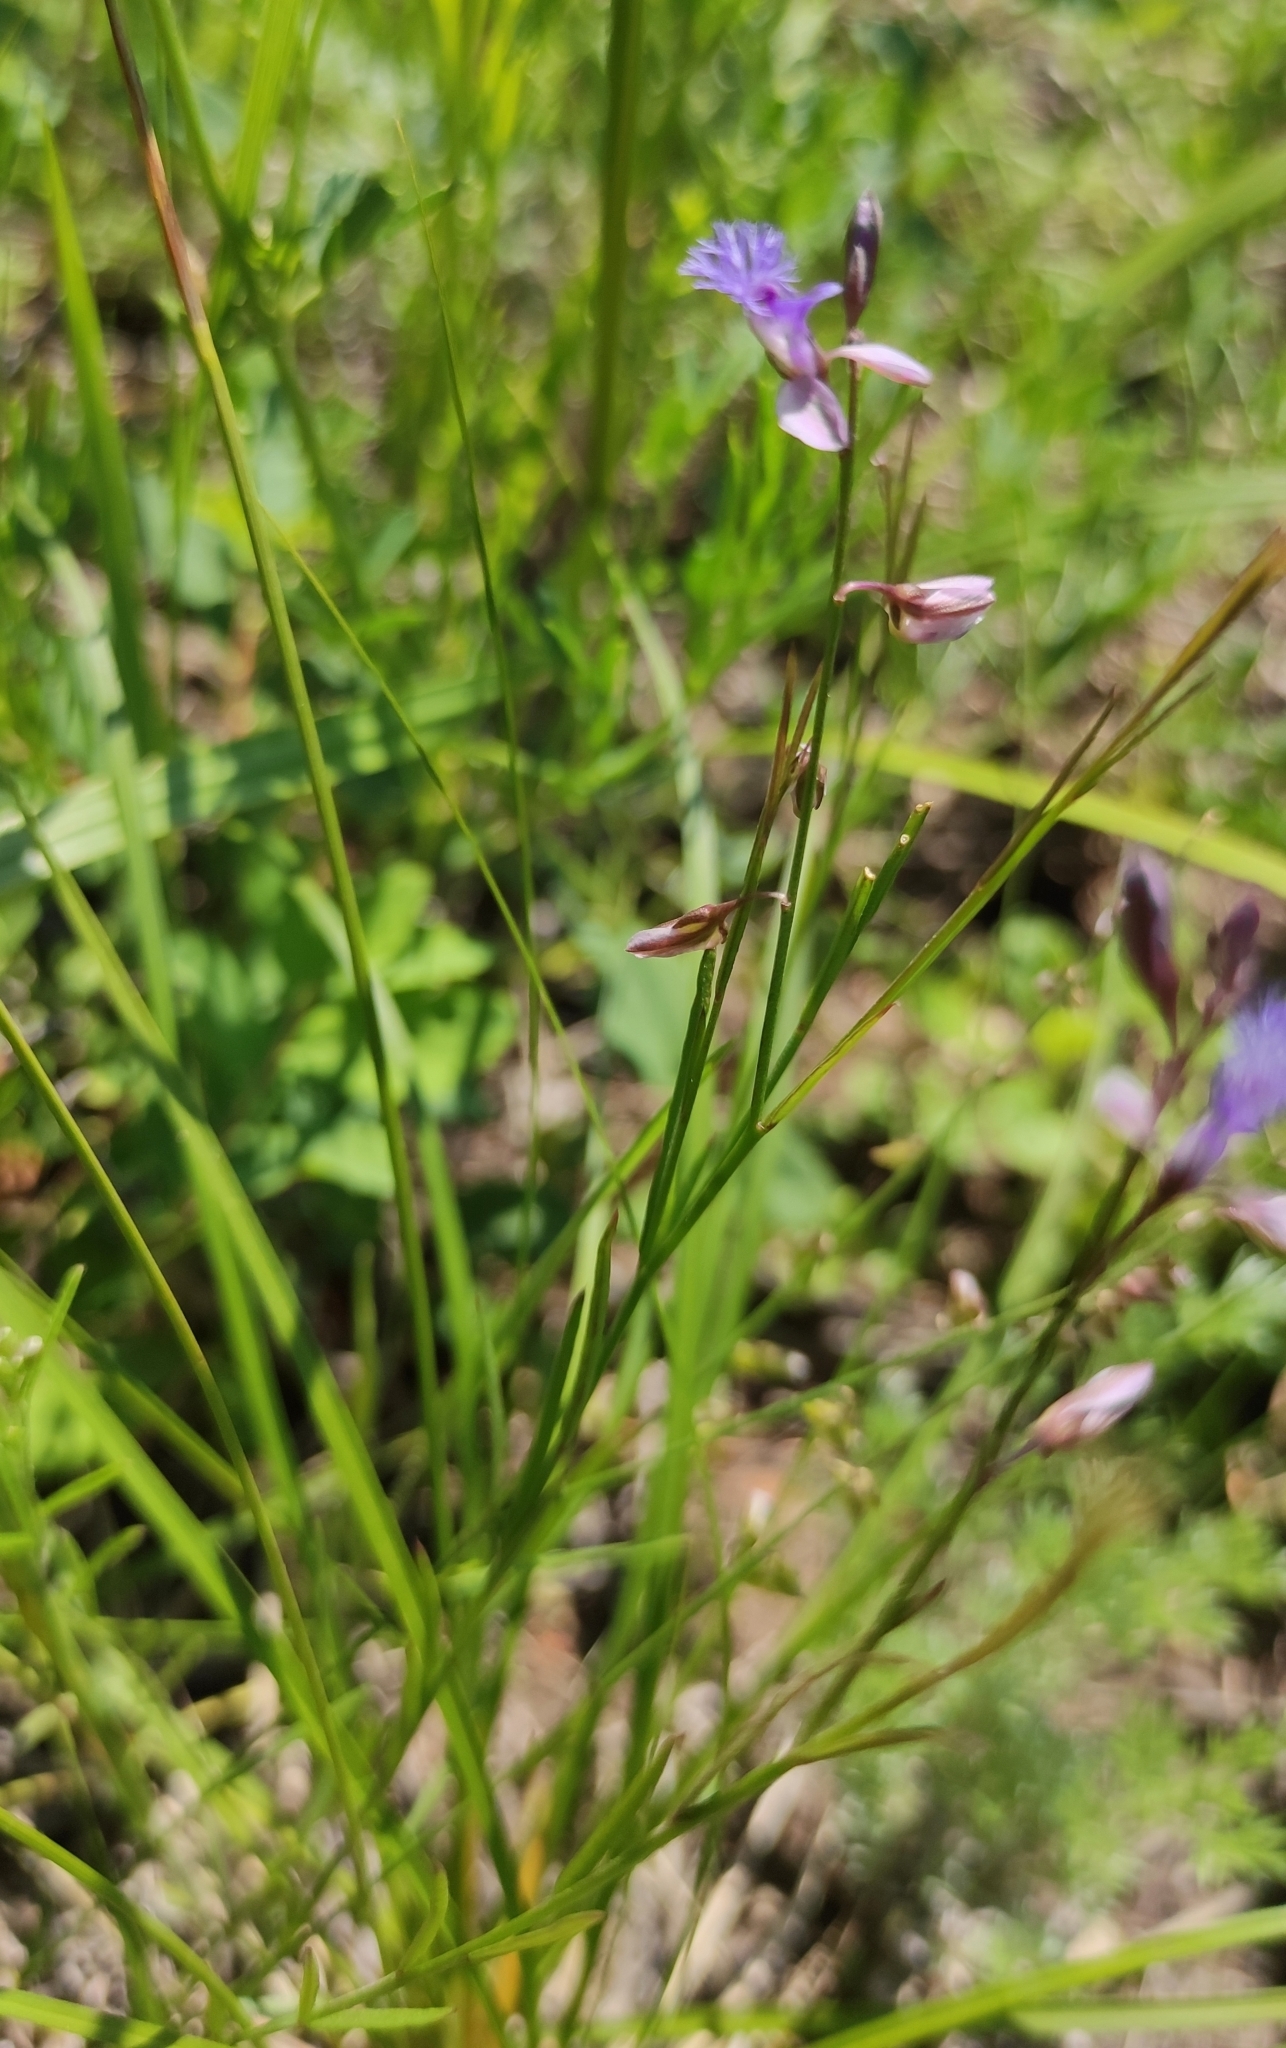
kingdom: Plantae
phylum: Tracheophyta
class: Magnoliopsida
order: Fabales
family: Polygalaceae
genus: Polygala
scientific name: Polygala tenuifolia
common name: Chinese senega-root
